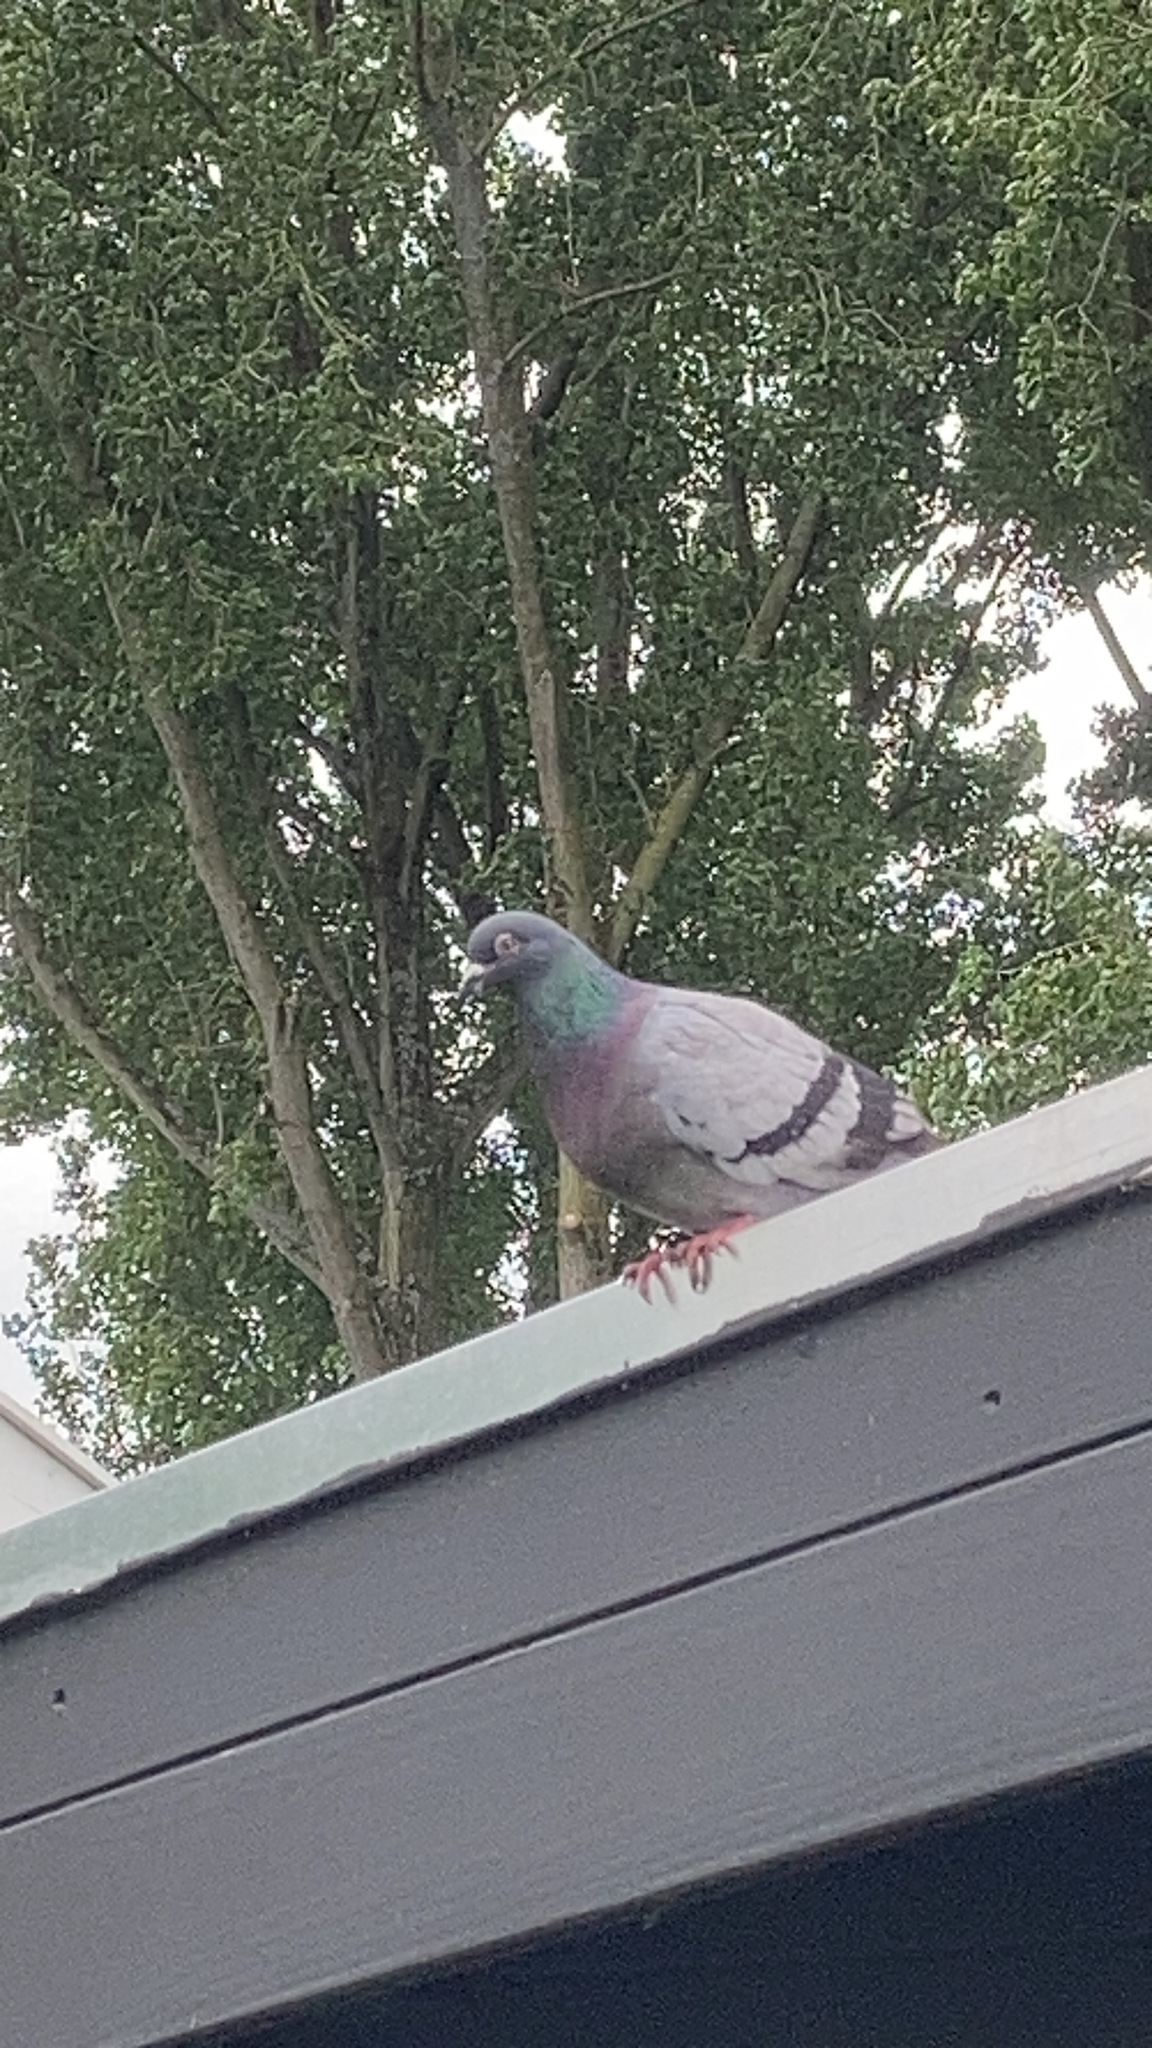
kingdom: Animalia
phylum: Chordata
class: Aves
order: Columbiformes
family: Columbidae
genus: Columba
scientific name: Columba livia
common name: Rock pigeon
